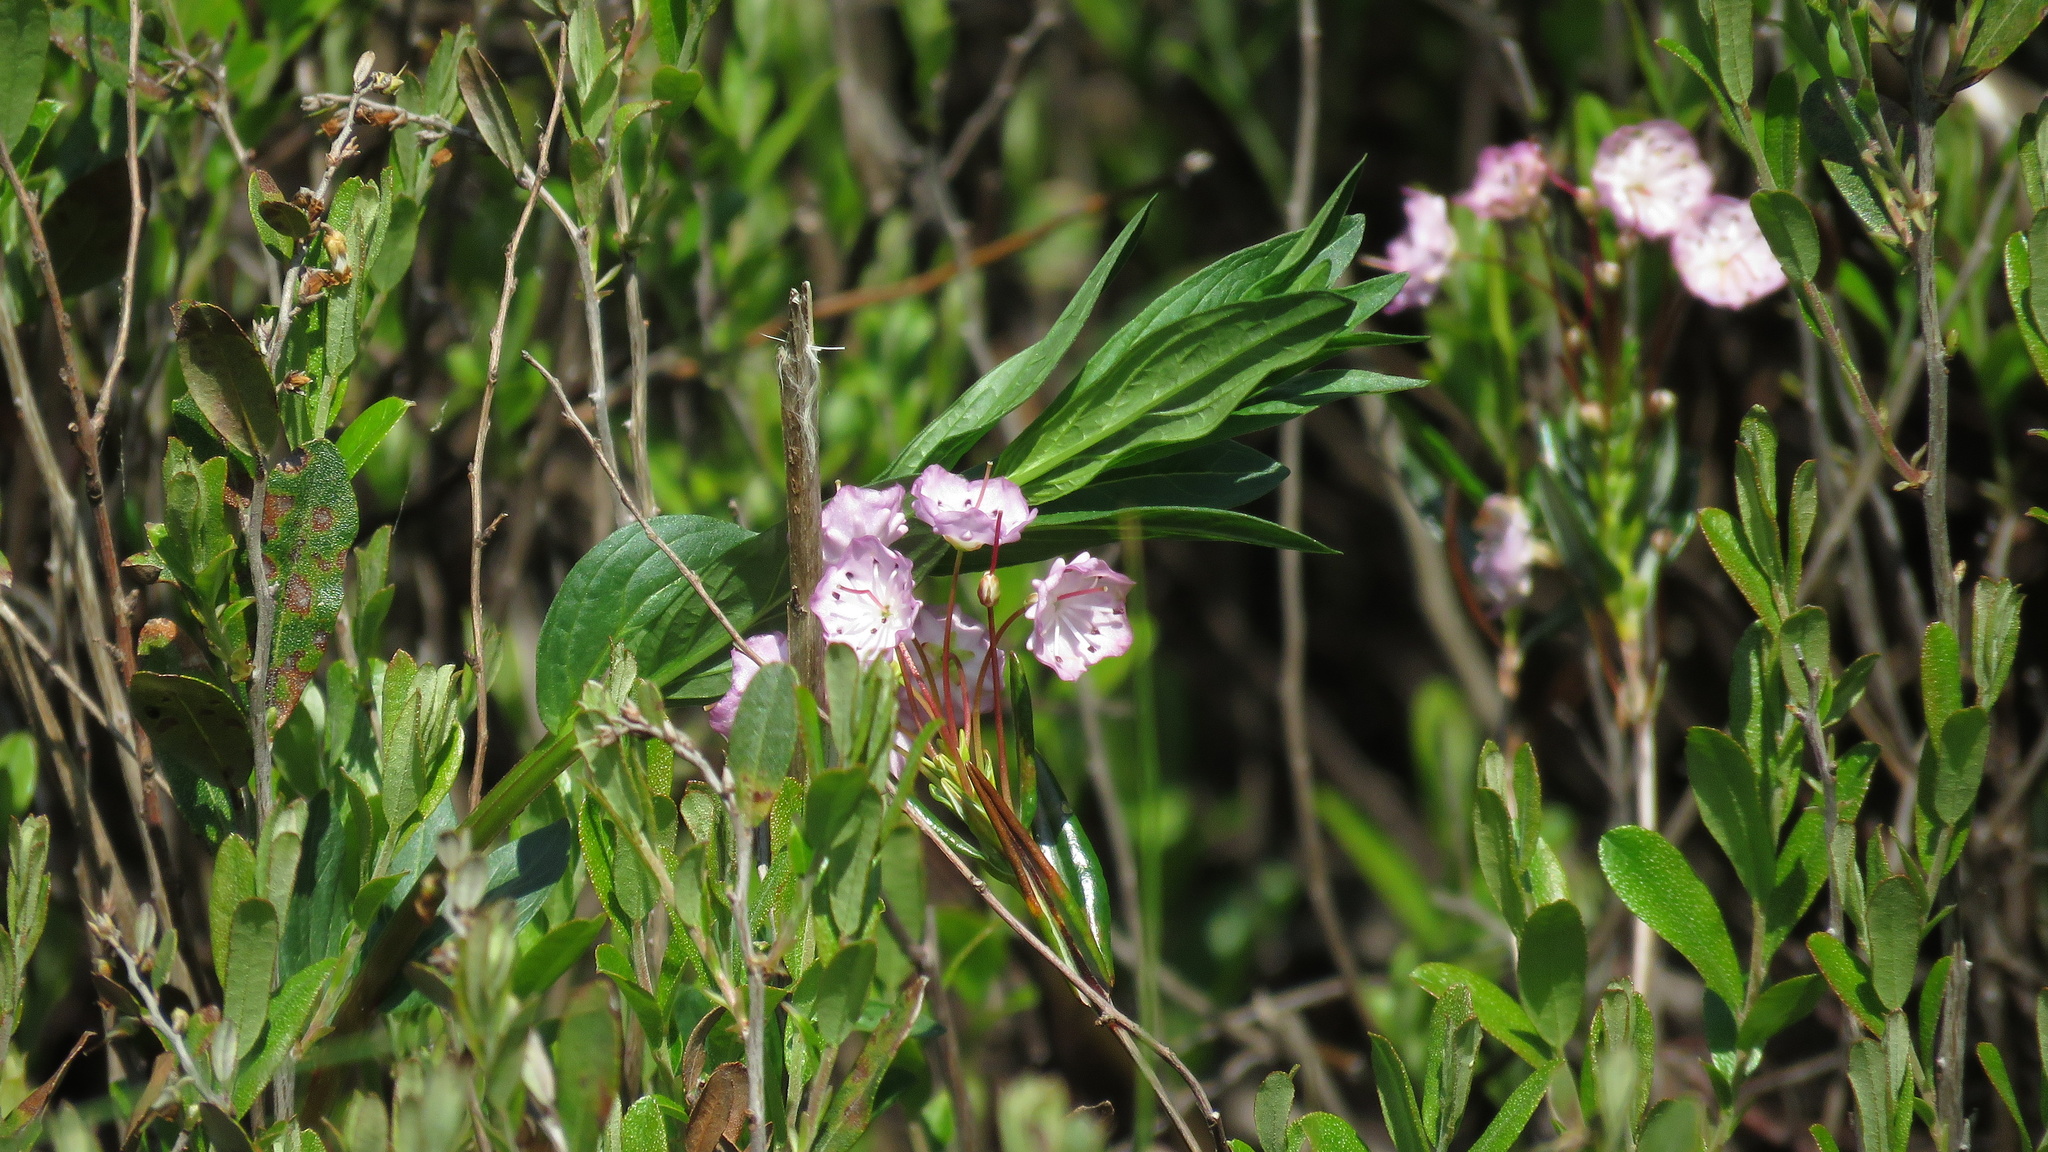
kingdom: Plantae
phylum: Tracheophyta
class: Magnoliopsida
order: Ericales
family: Ericaceae
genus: Kalmia
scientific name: Kalmia polifolia
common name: Bog-laurel
